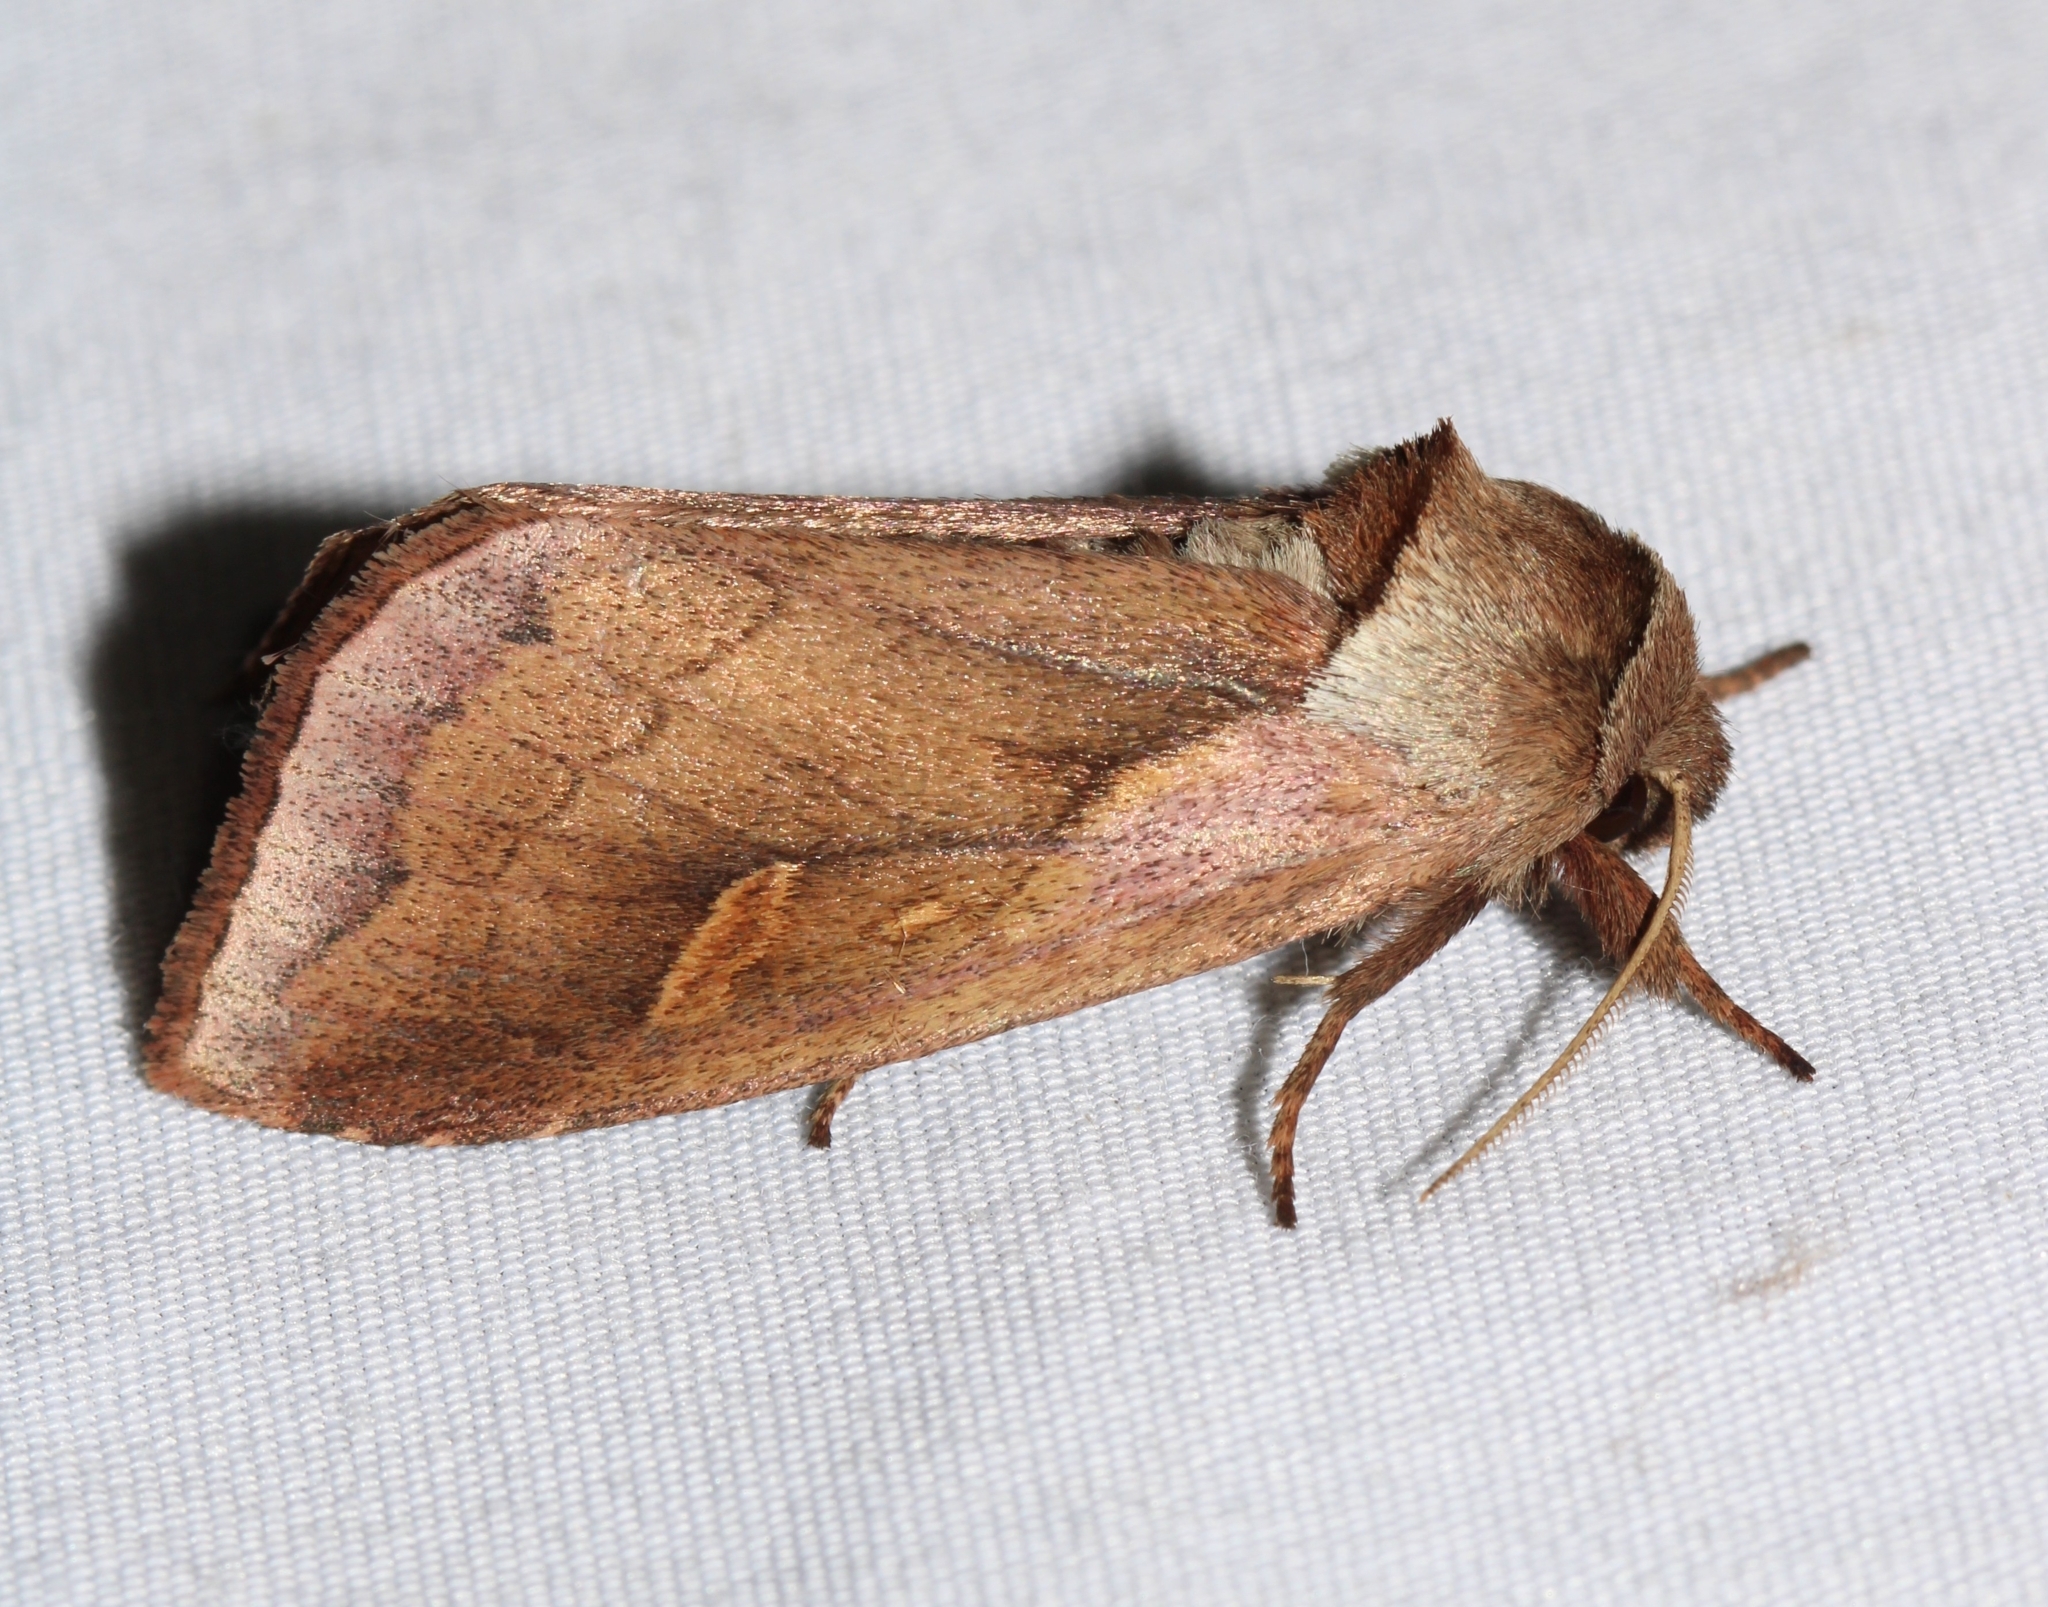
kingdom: Animalia
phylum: Arthropoda
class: Insecta
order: Lepidoptera
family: Noctuidae
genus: Bellura
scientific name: Bellura obliqua
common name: Cattail borer moth
